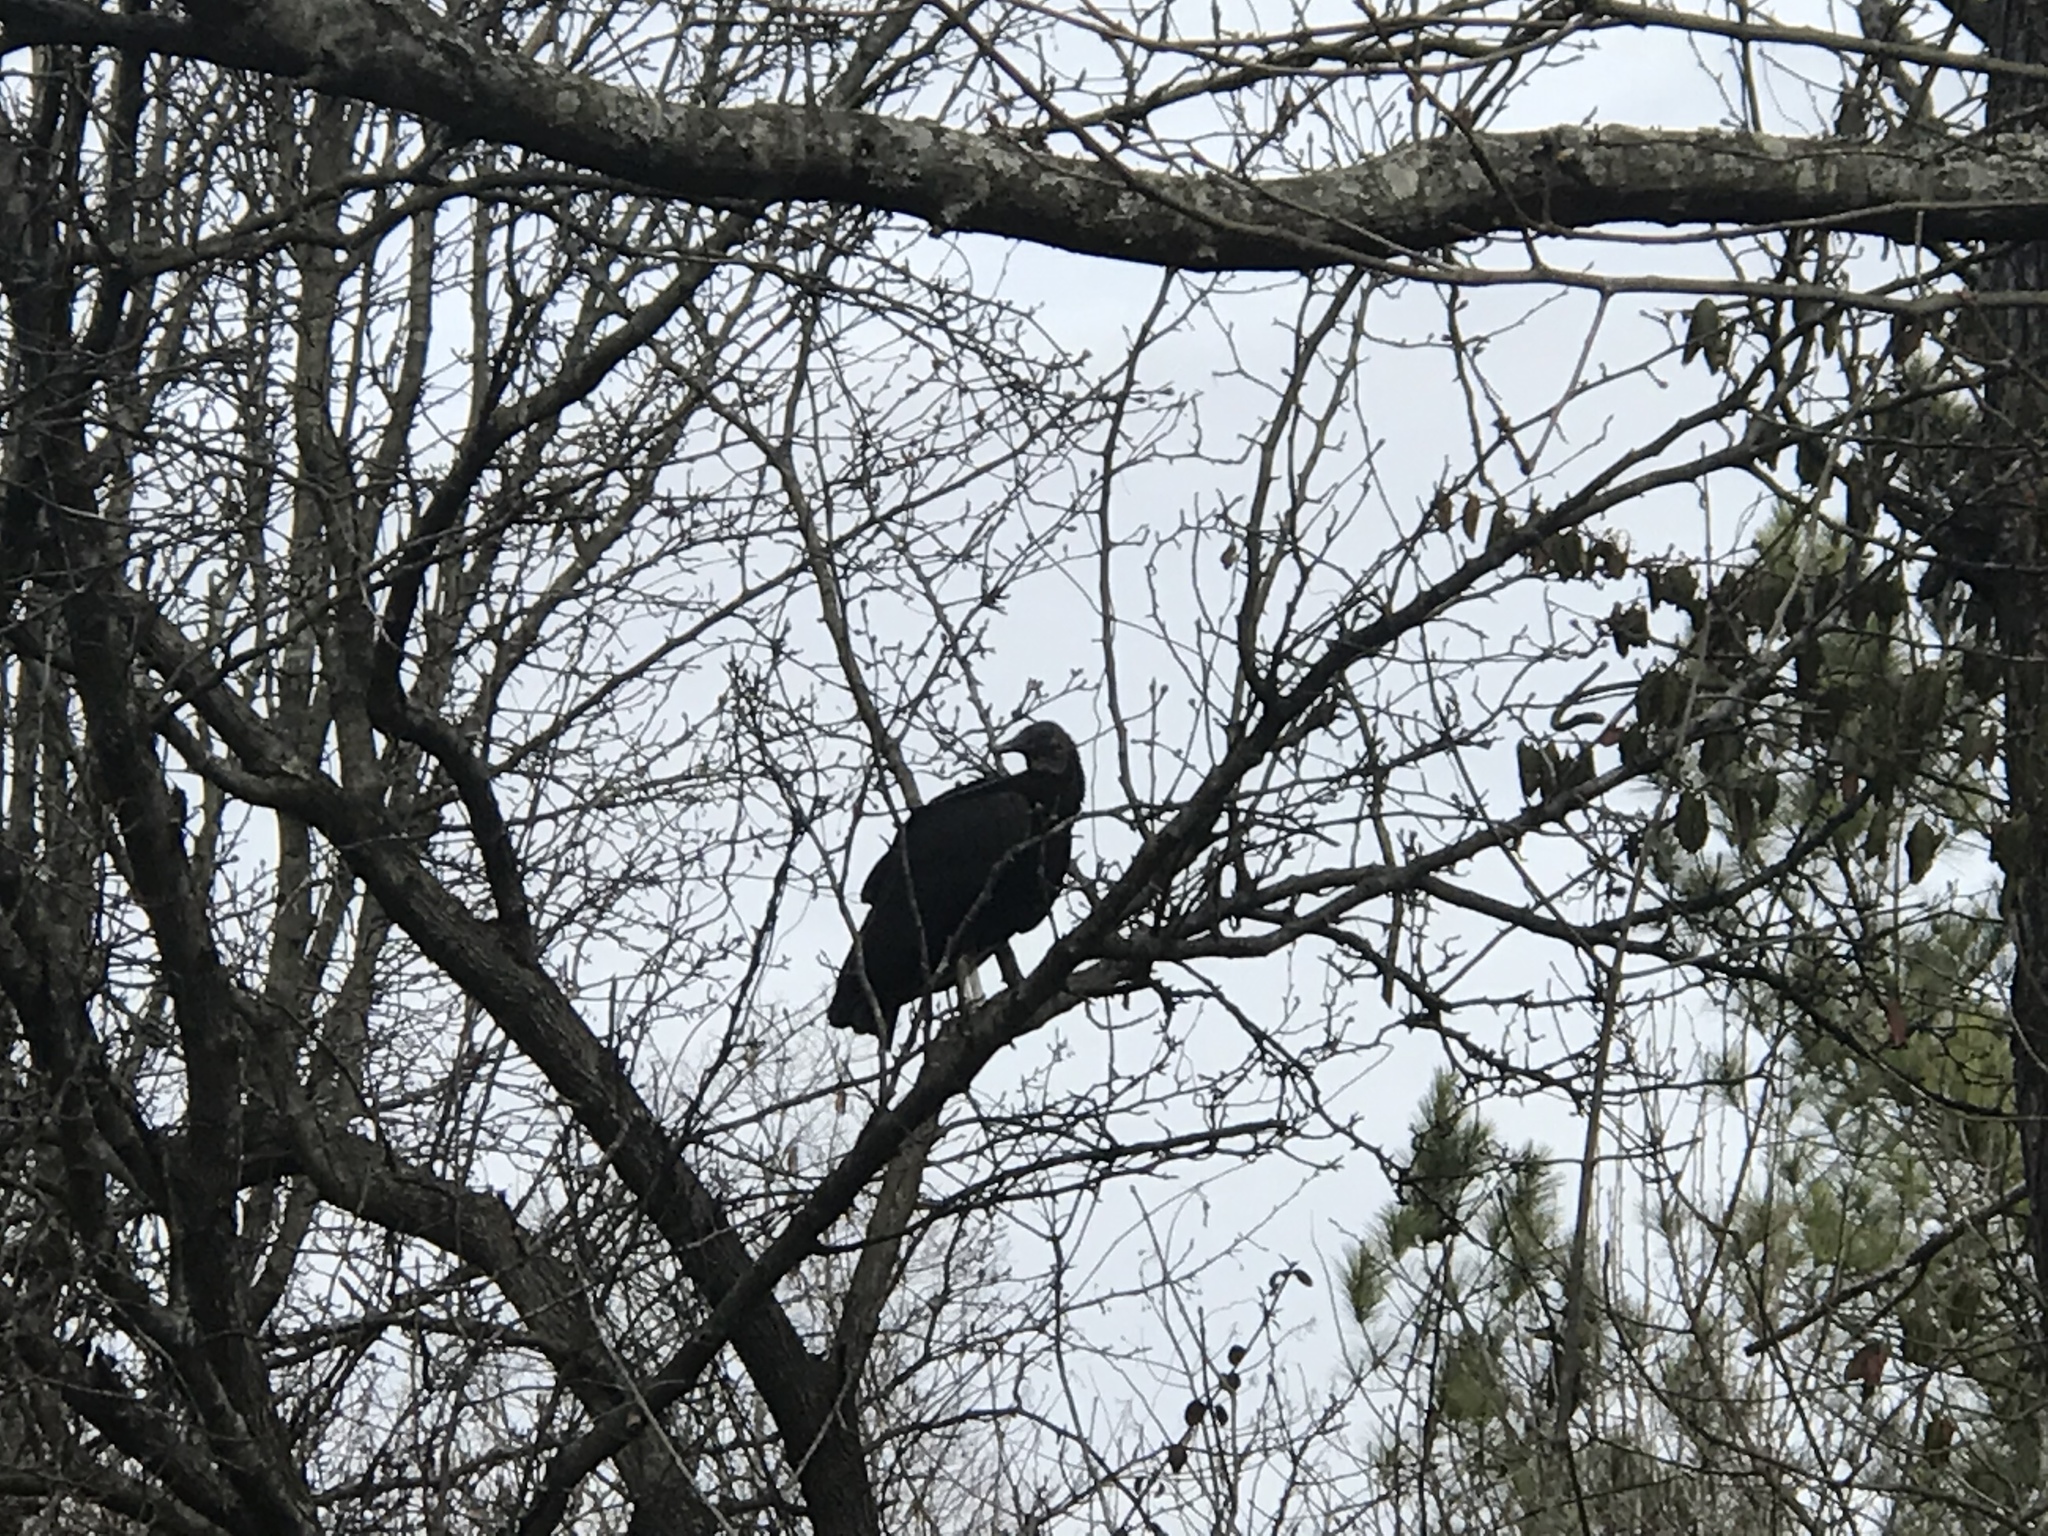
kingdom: Animalia
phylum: Chordata
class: Aves
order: Accipitriformes
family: Cathartidae
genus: Coragyps
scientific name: Coragyps atratus
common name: Black vulture
